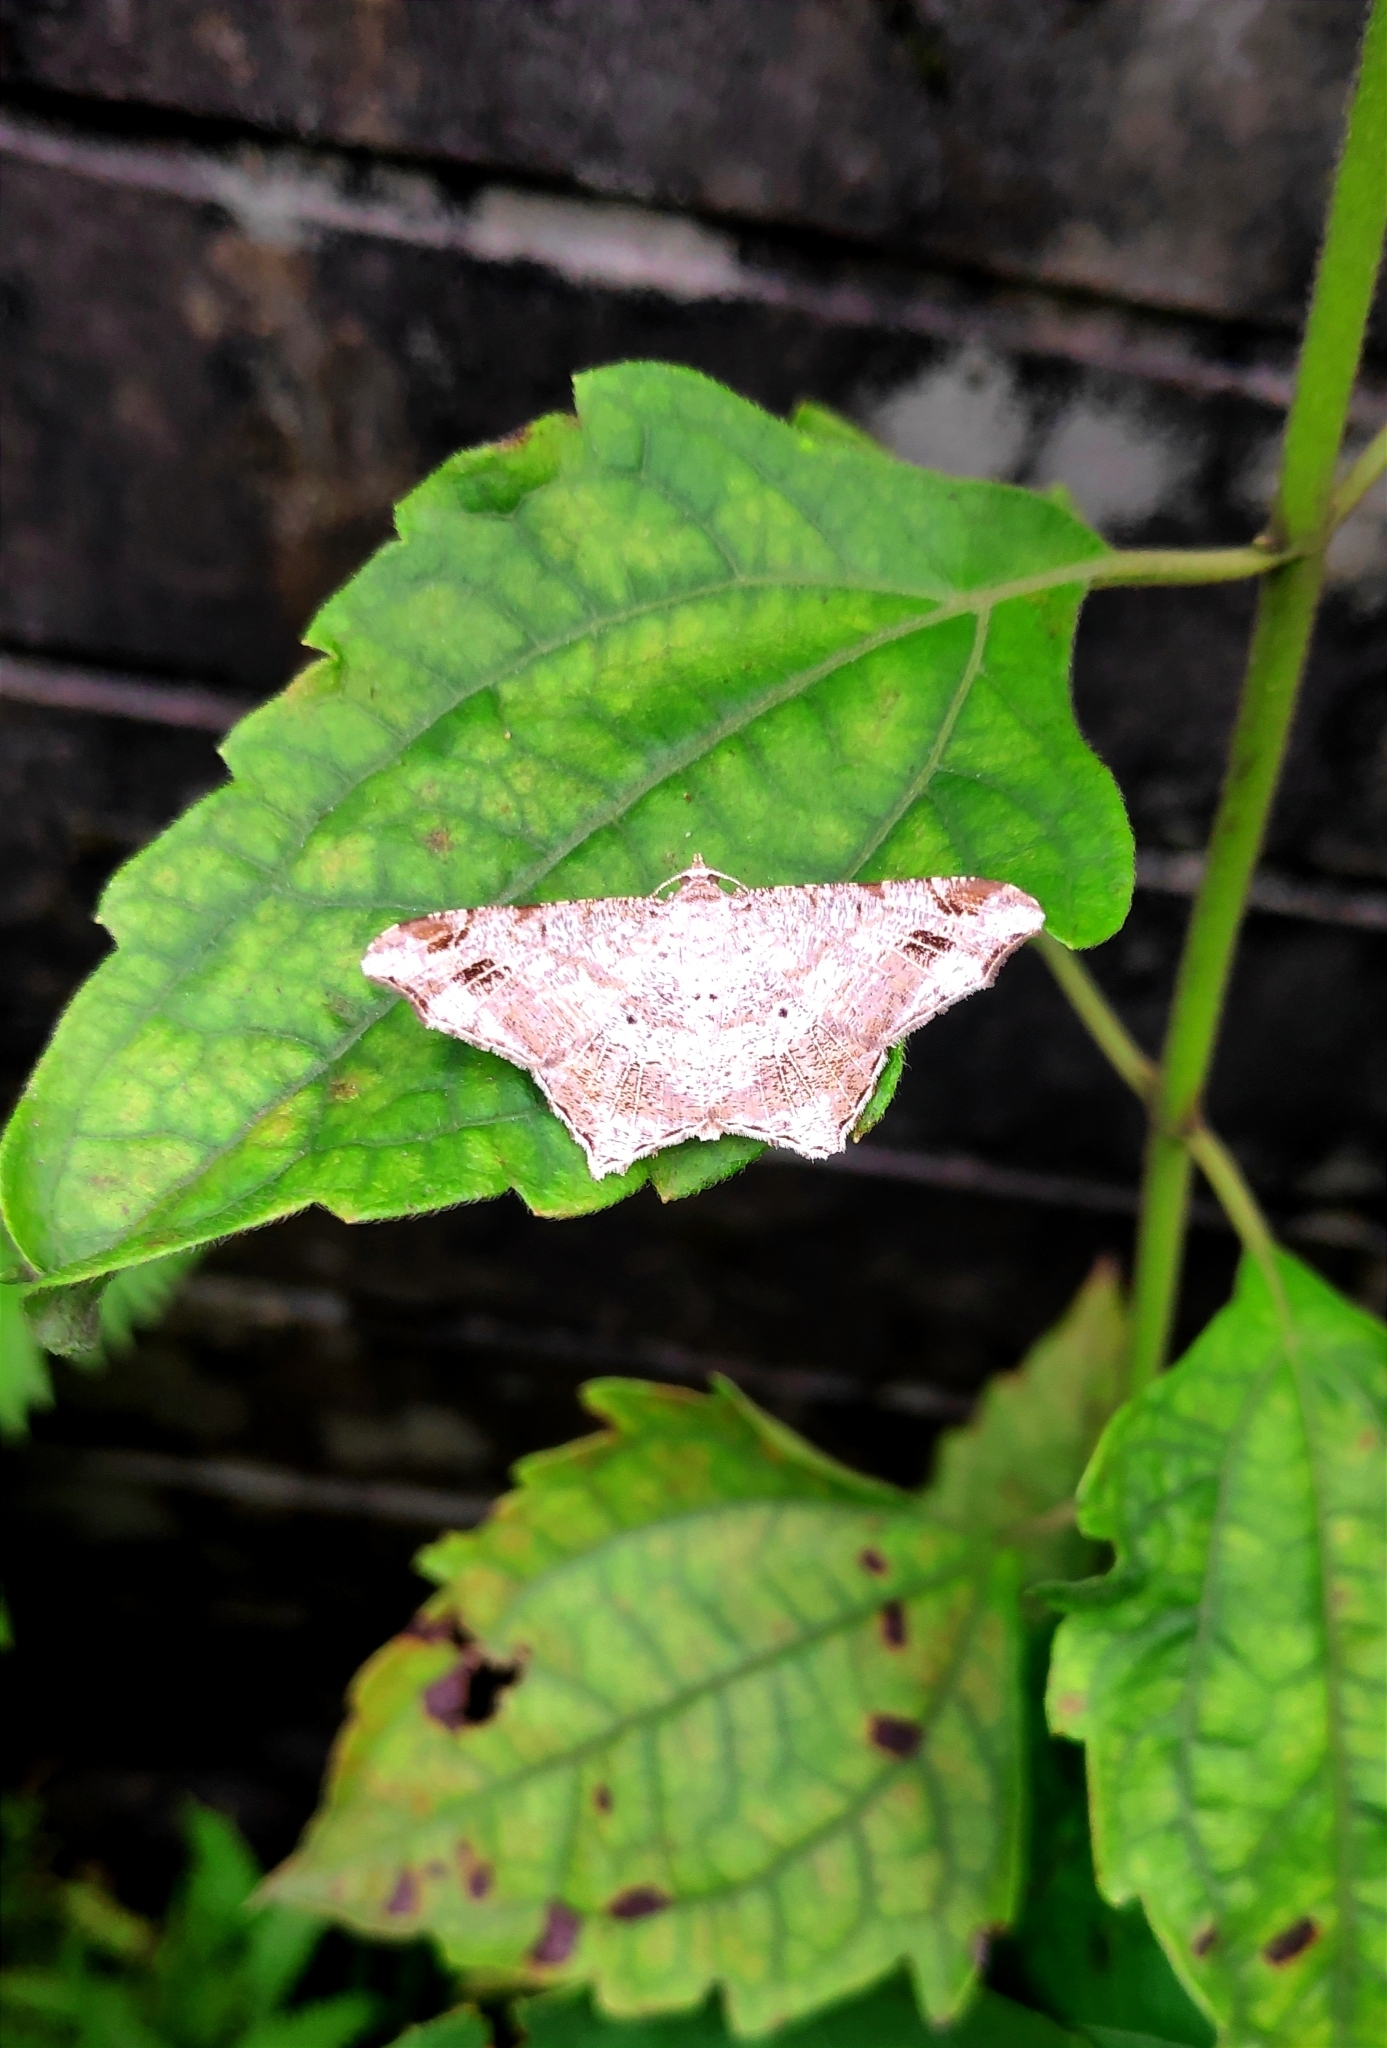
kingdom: Animalia
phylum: Arthropoda
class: Insecta
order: Lepidoptera
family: Geometridae
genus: Chiasmia
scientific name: Chiasmia emersaria
